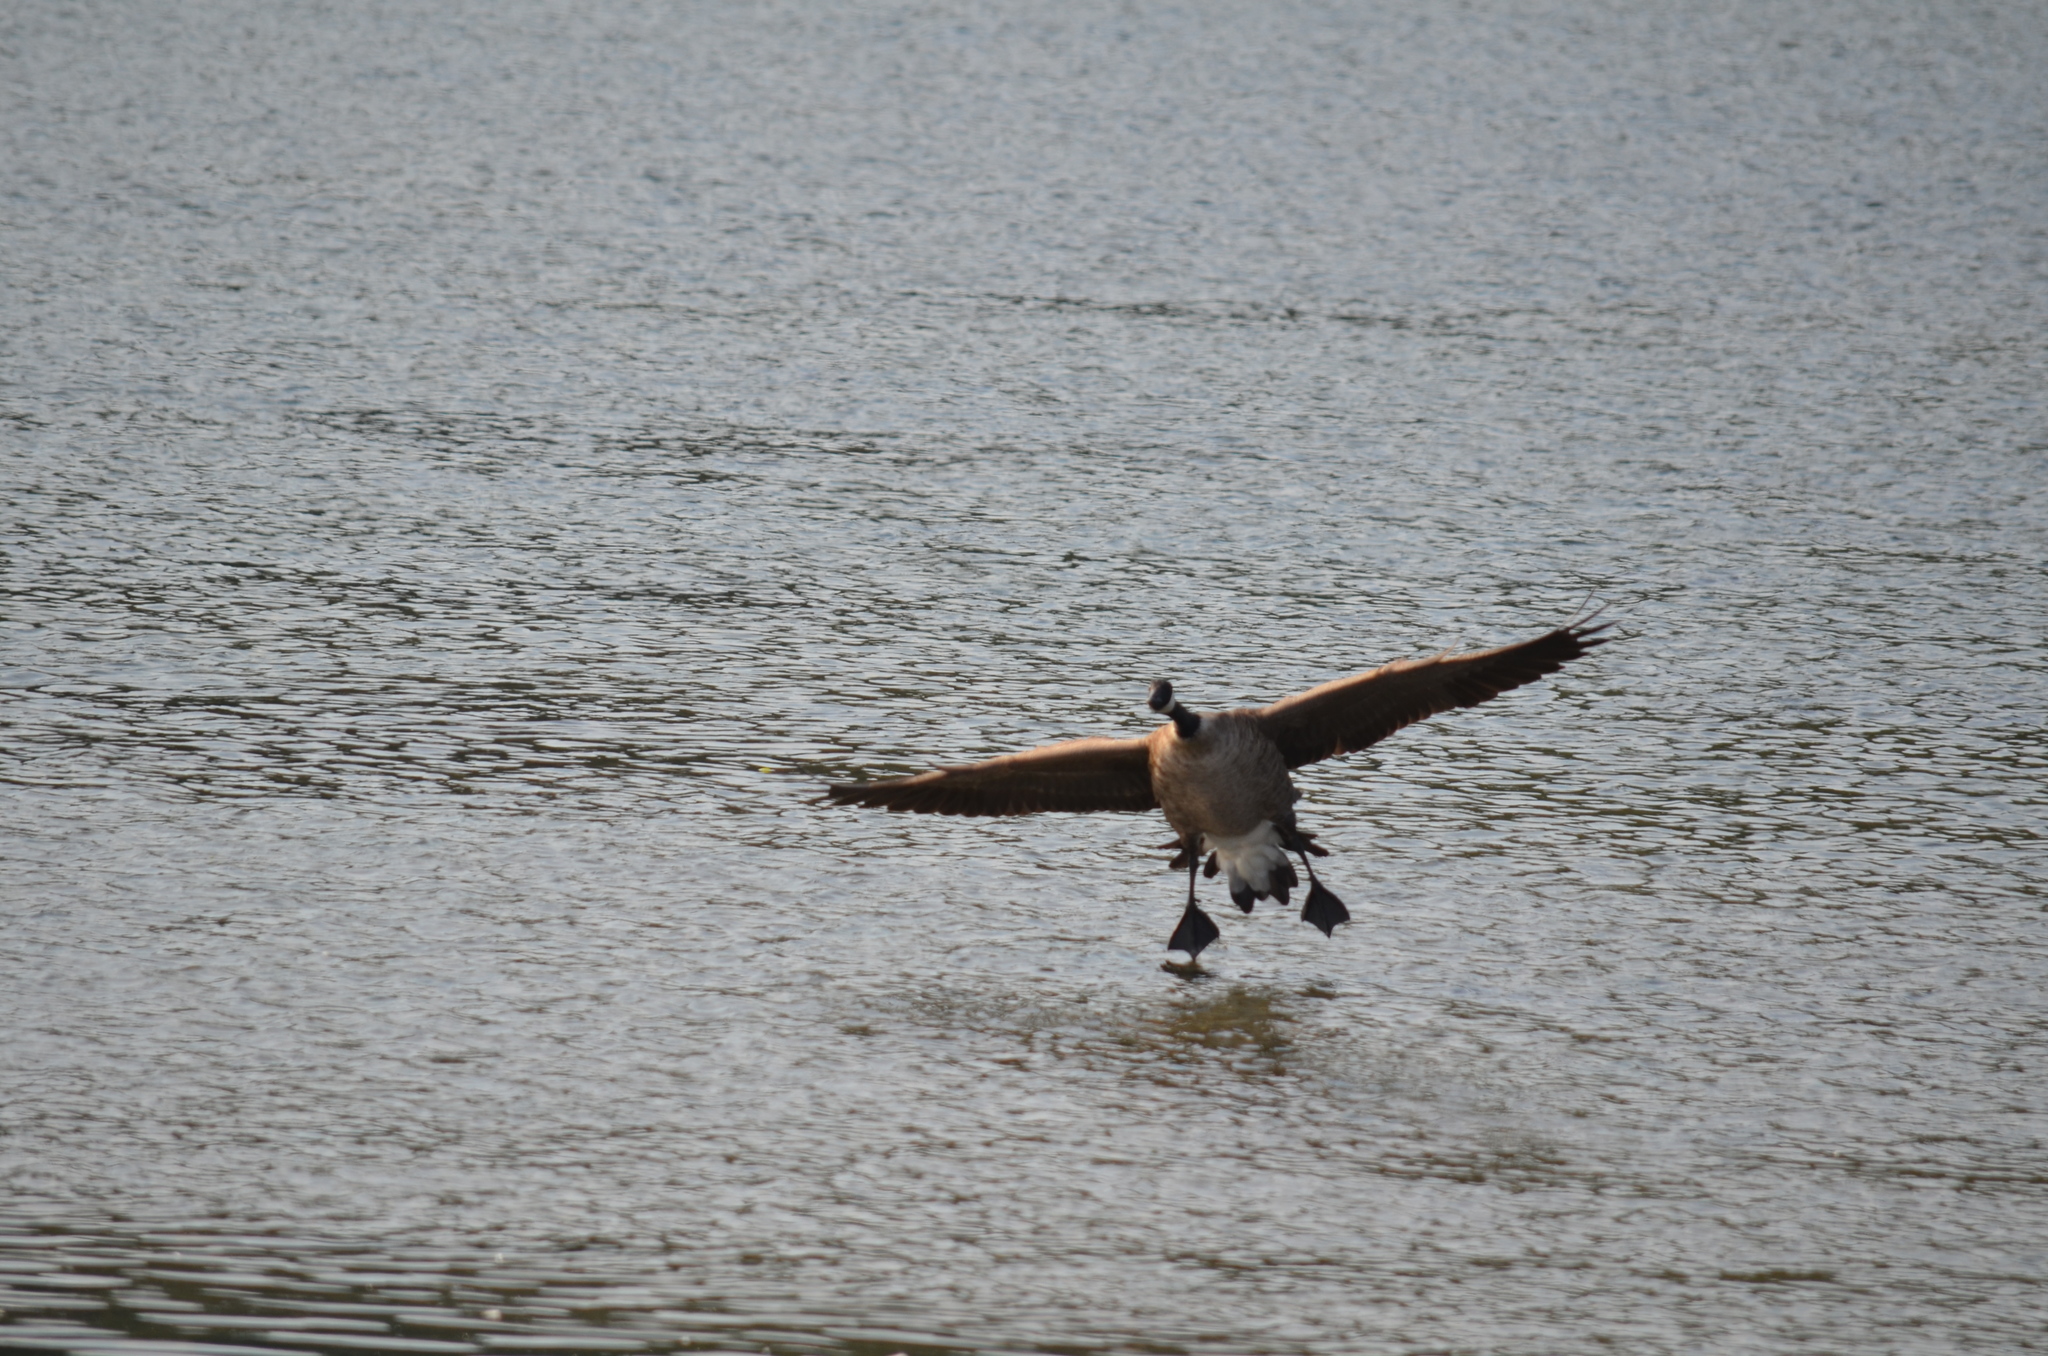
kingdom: Animalia
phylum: Chordata
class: Aves
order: Anseriformes
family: Anatidae
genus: Branta
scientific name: Branta canadensis
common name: Canada goose
